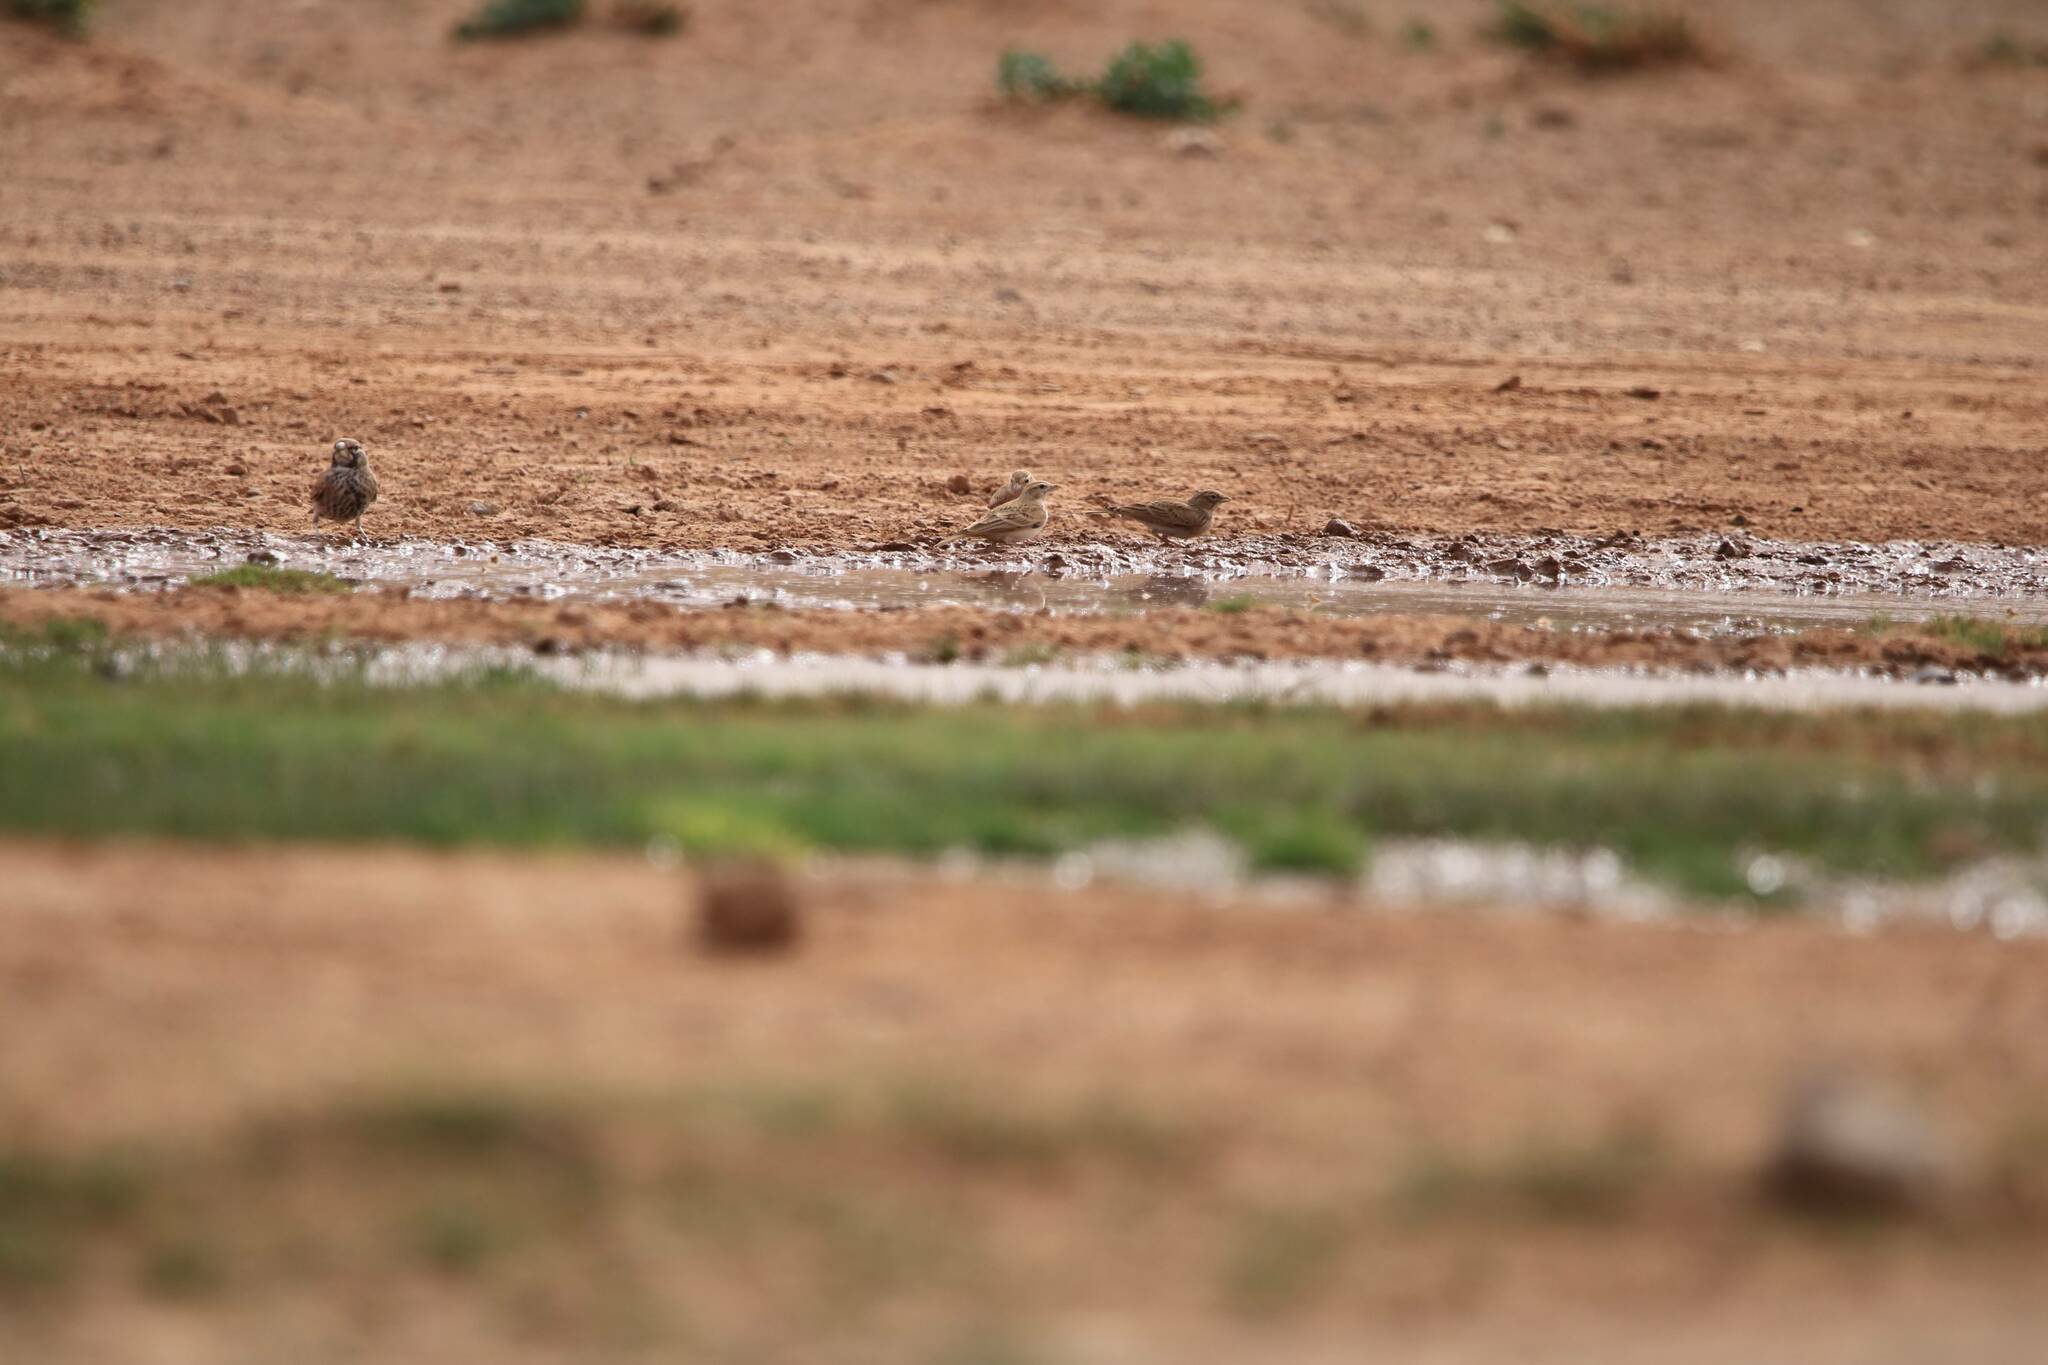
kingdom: Animalia
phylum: Chordata
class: Aves
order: Passeriformes
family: Alaudidae
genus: Calandrella
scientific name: Calandrella brachydactyla
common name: Greater short-toed lark
